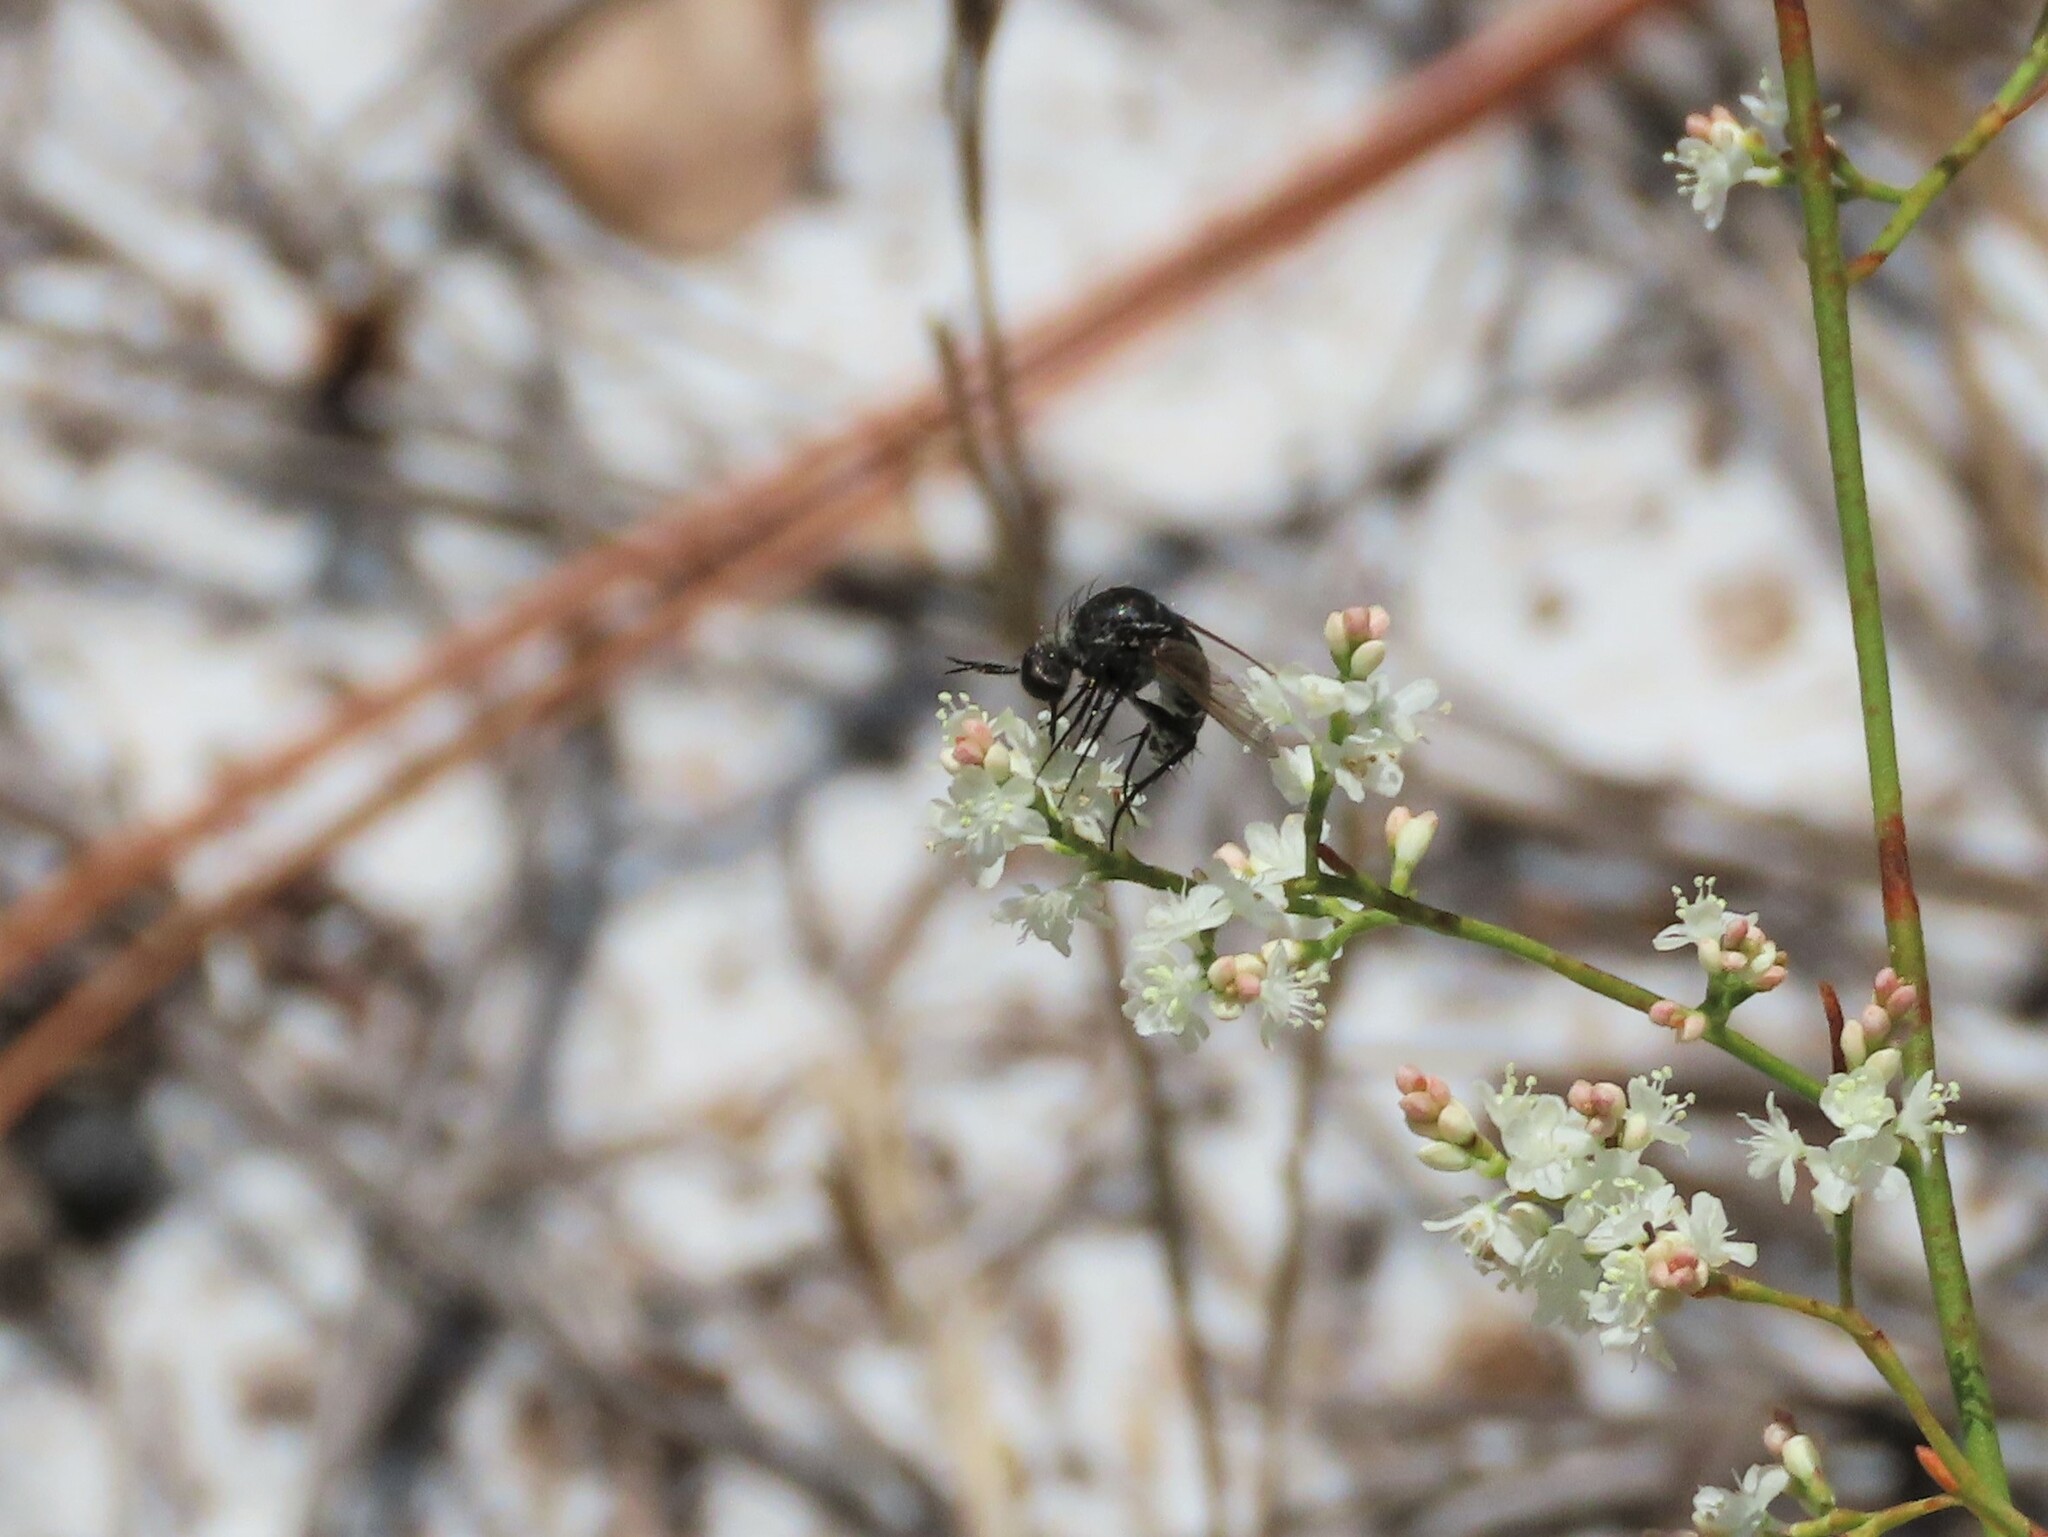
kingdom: Animalia
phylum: Arthropoda
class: Insecta
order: Diptera
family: Bombyliidae
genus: Toxophora
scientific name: Toxophora amphitea
